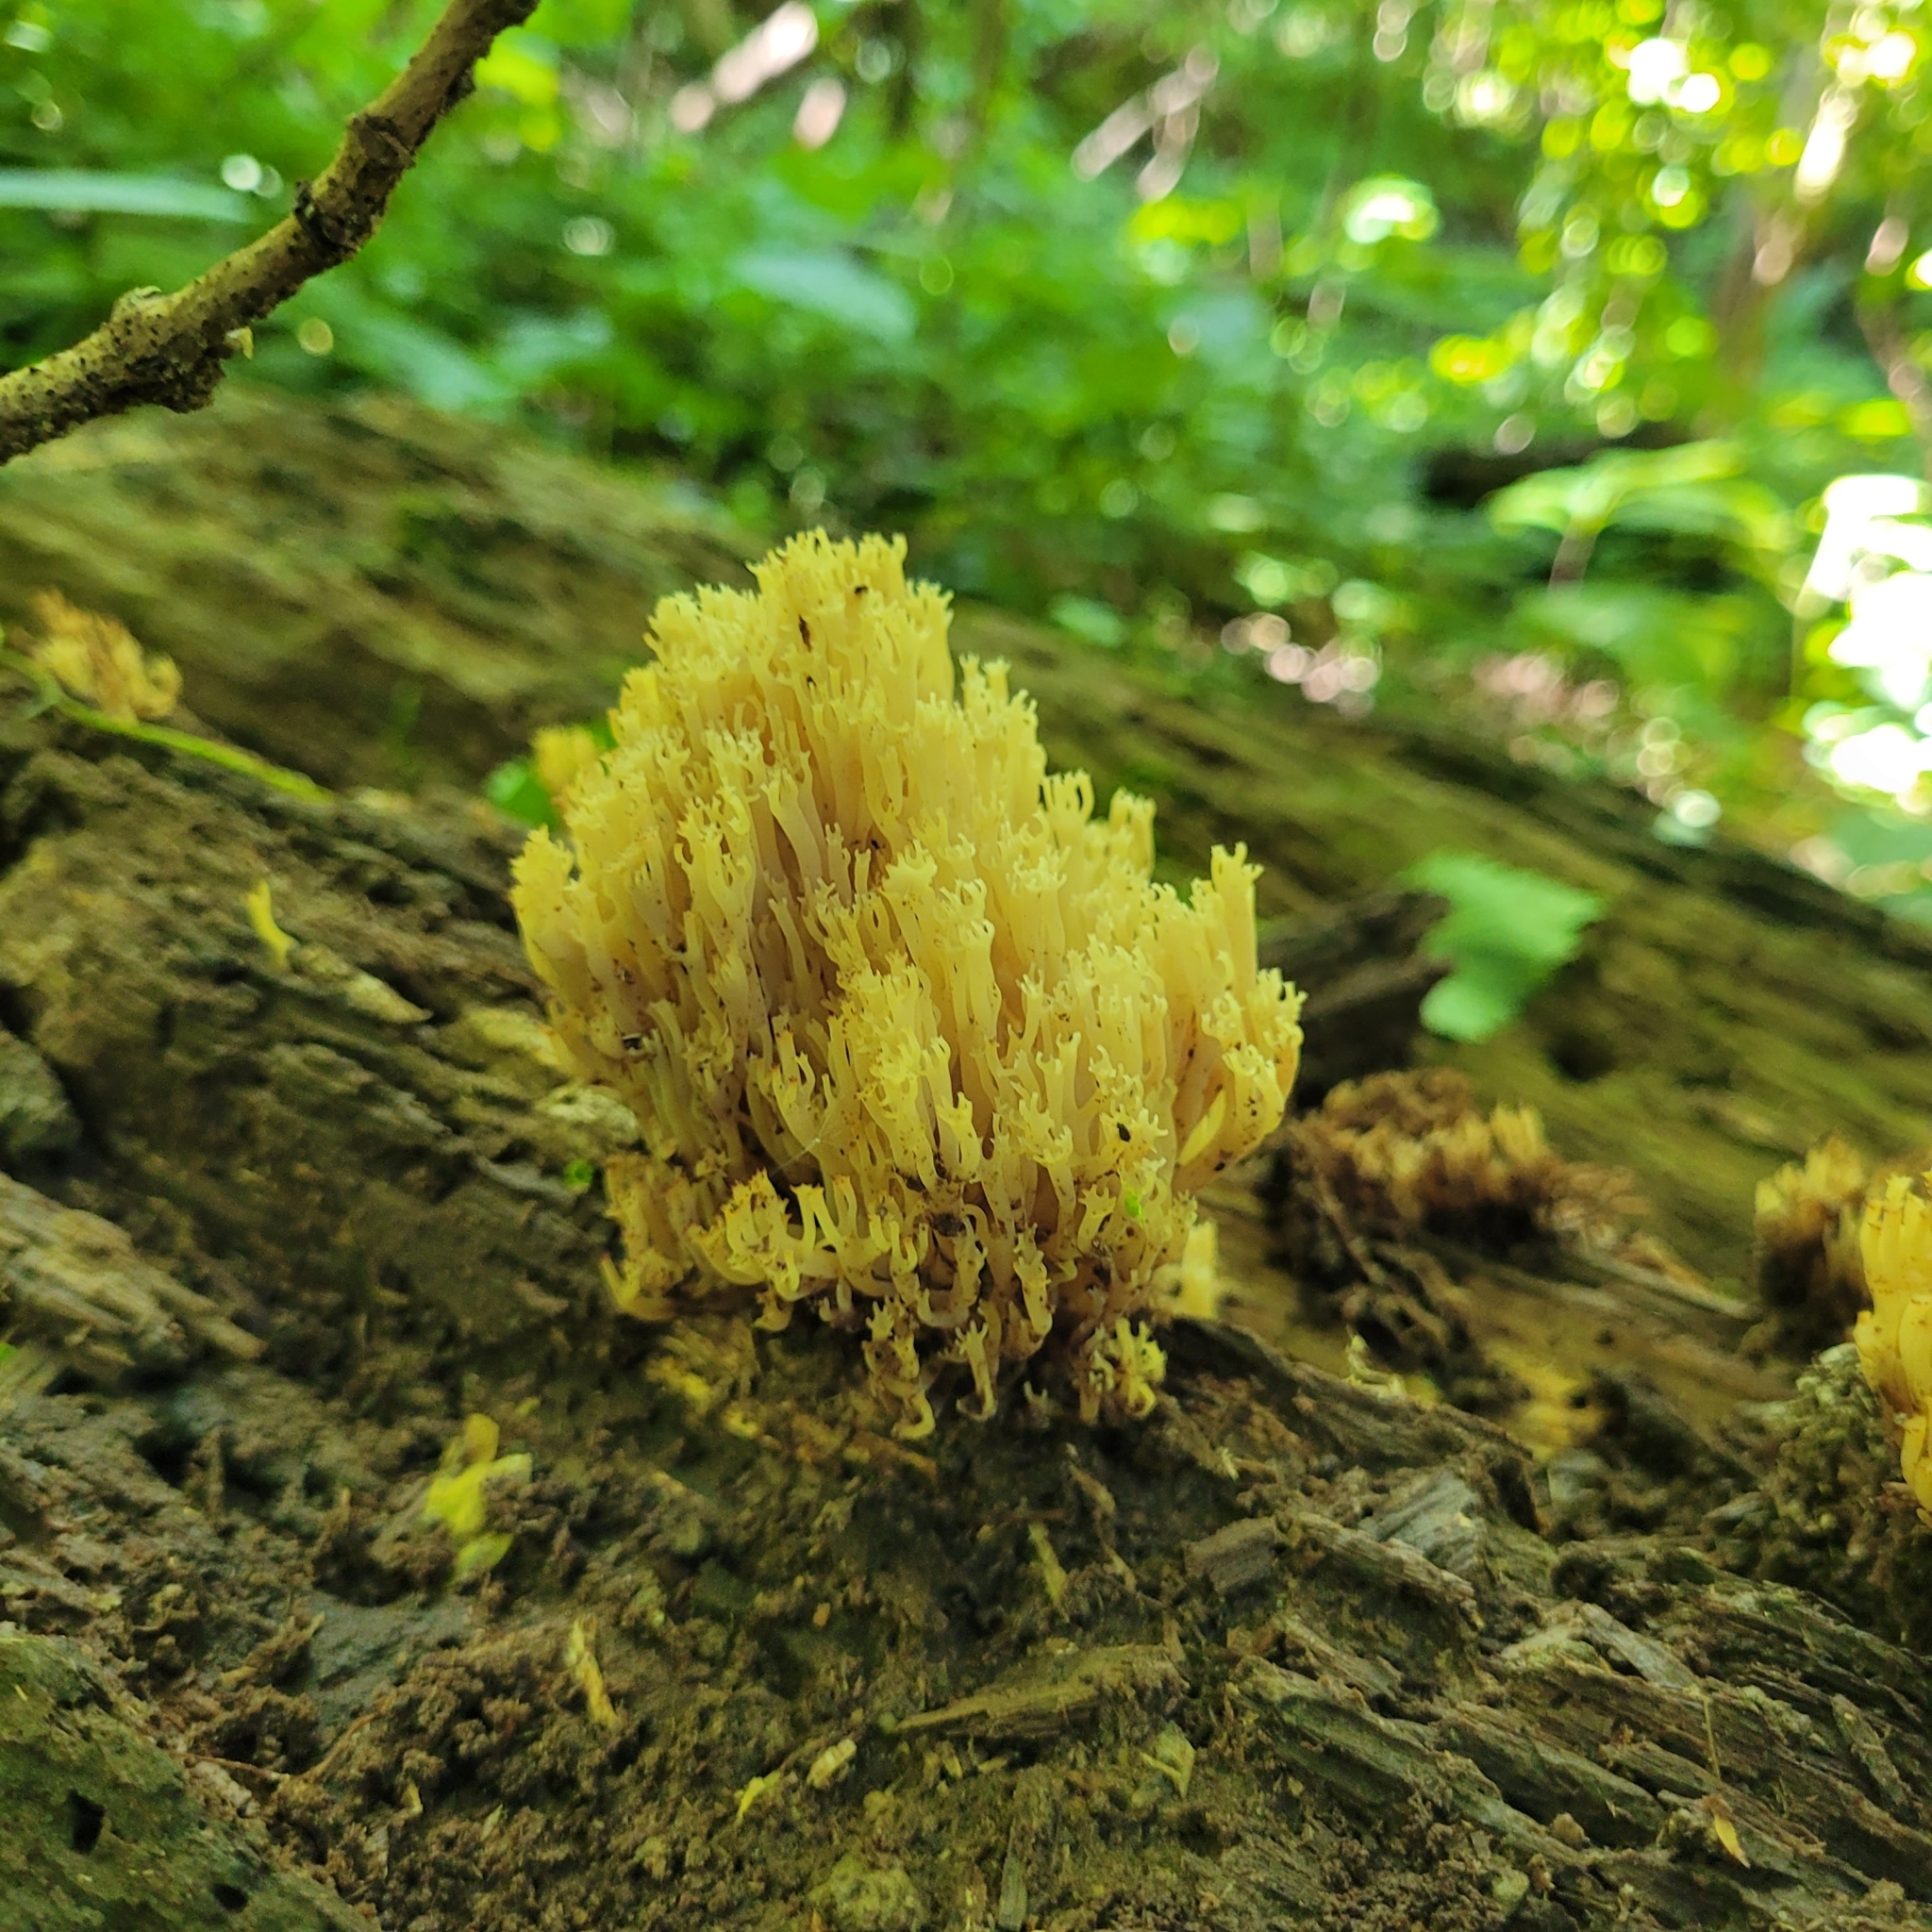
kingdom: Fungi
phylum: Basidiomycota
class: Agaricomycetes
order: Russulales
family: Auriscalpiaceae
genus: Artomyces
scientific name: Artomyces pyxidatus
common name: Crown-tipped coral fungus
